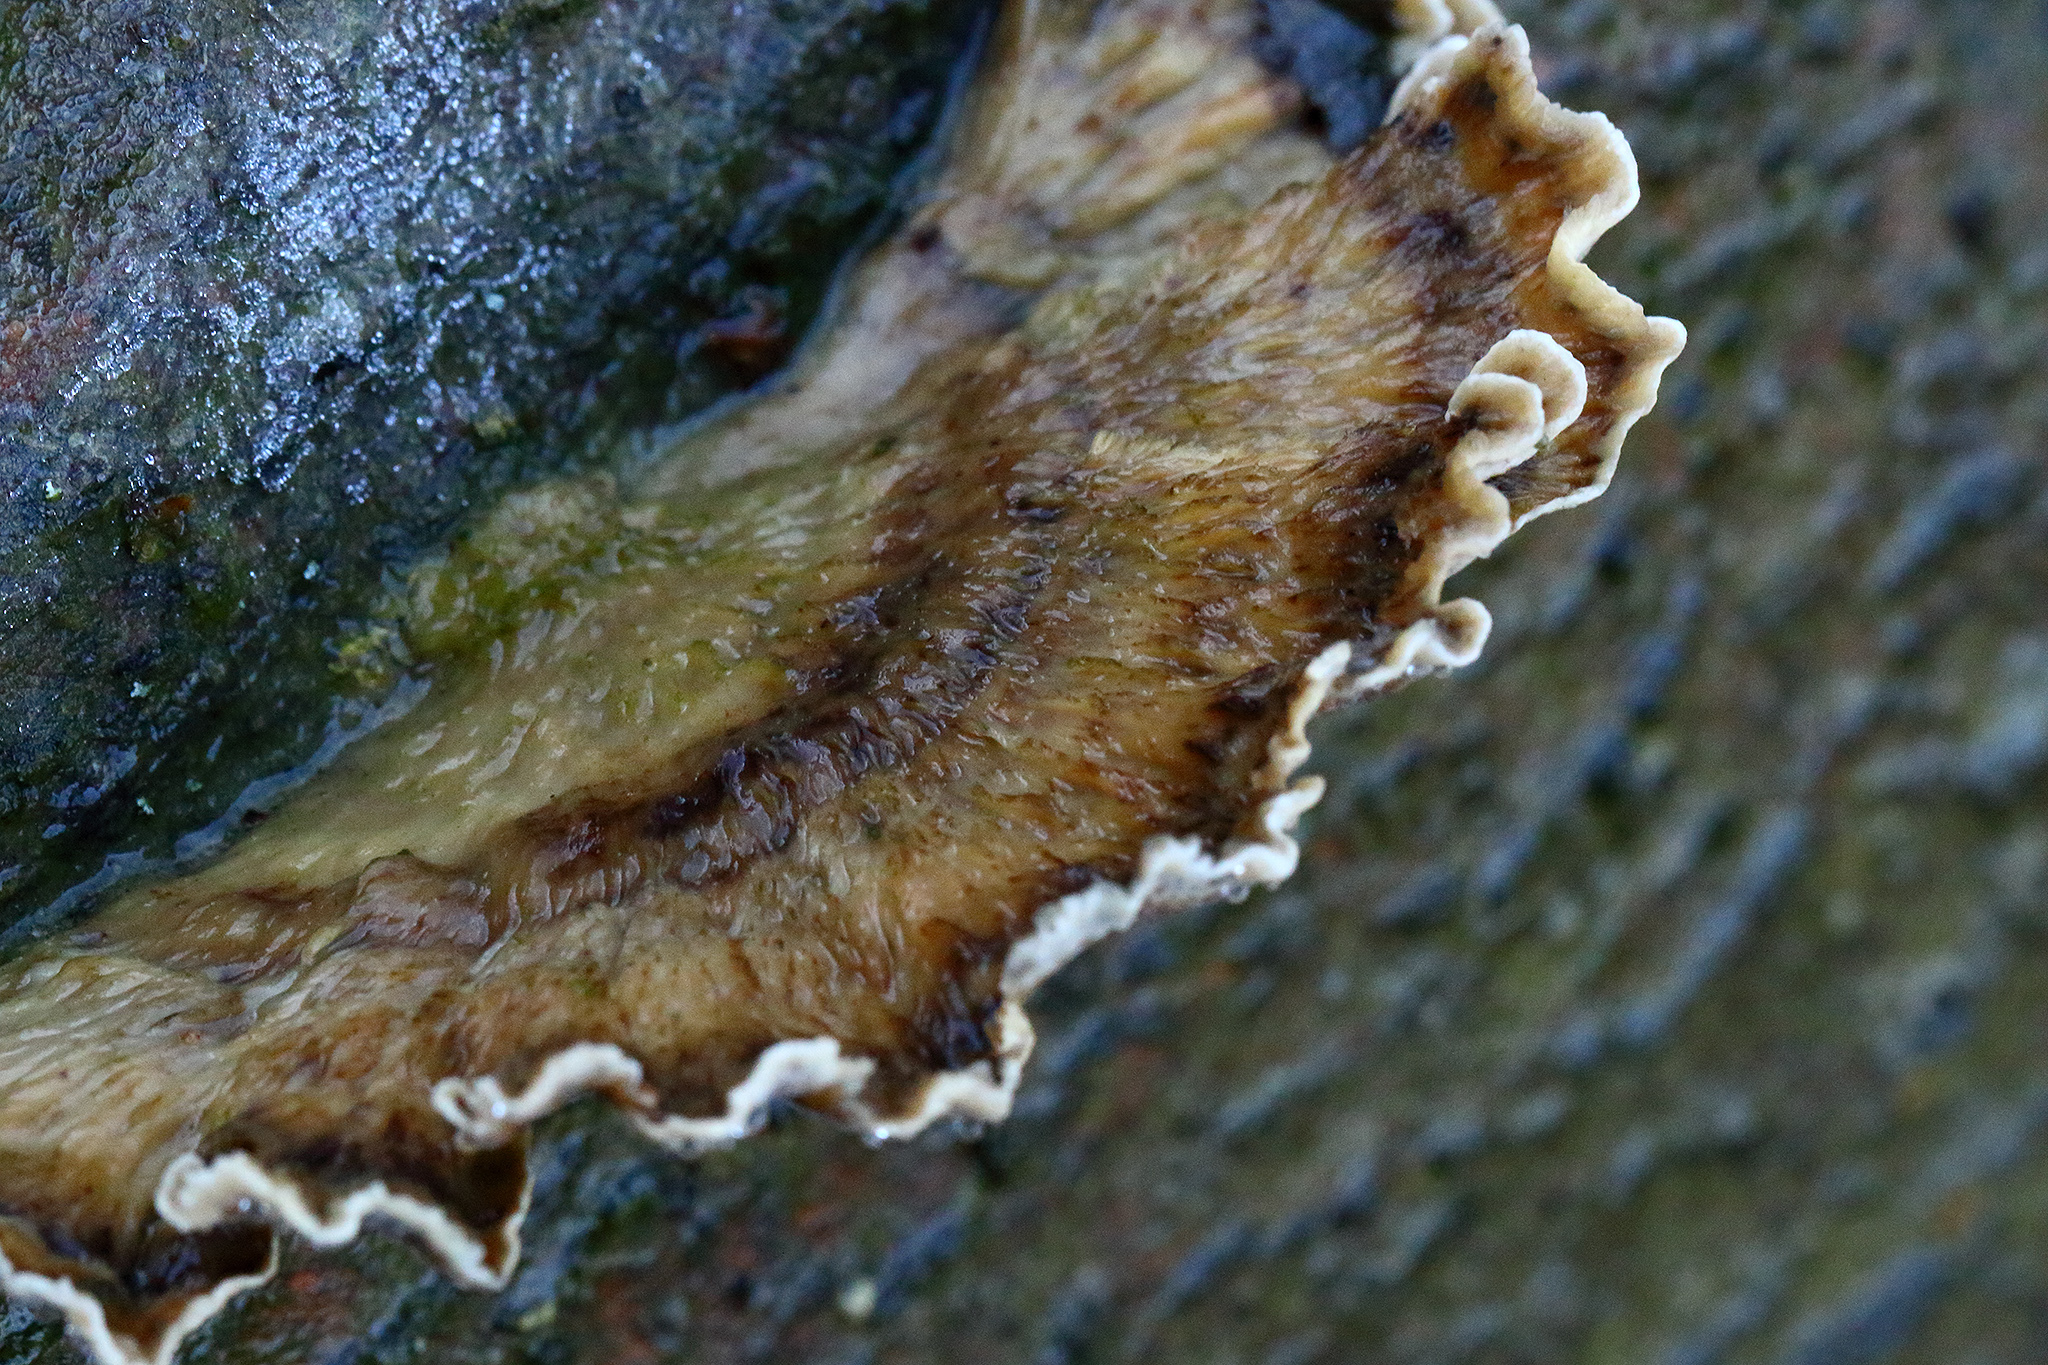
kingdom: Fungi
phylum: Basidiomycota
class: Agaricomycetes
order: Polyporales
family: Phanerochaetaceae
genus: Bjerkandera
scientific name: Bjerkandera adusta
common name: Smoky bracket
